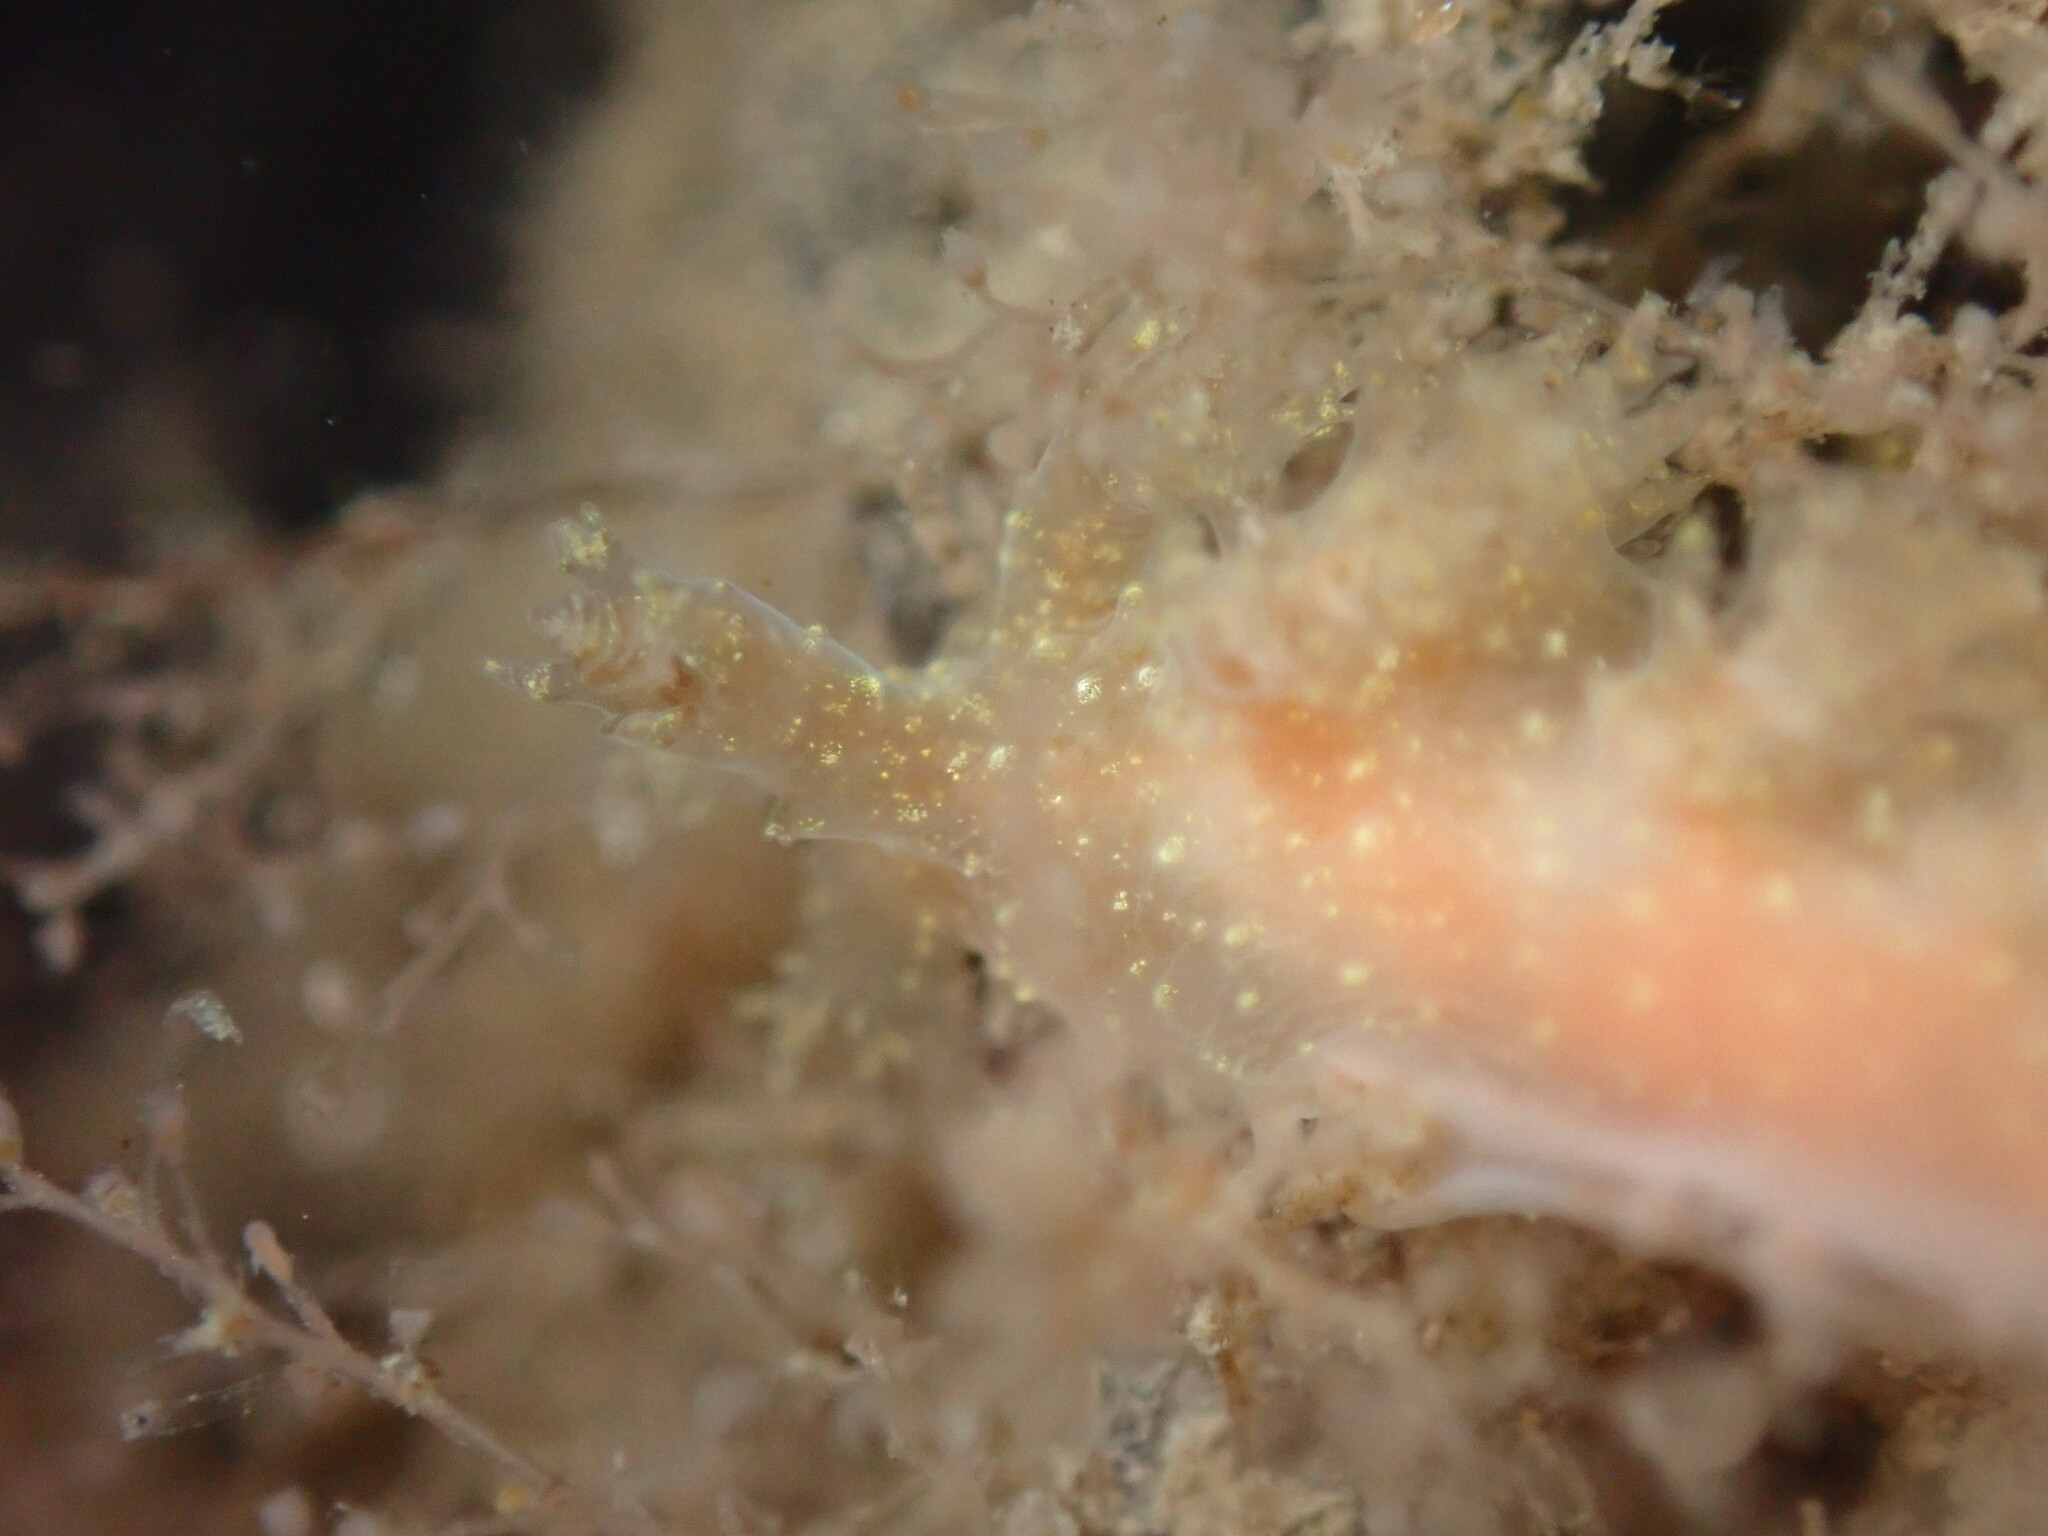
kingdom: Animalia
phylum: Mollusca
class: Gastropoda
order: Nudibranchia
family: Dendronotidae
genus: Dendronotus
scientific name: Dendronotus venustus
